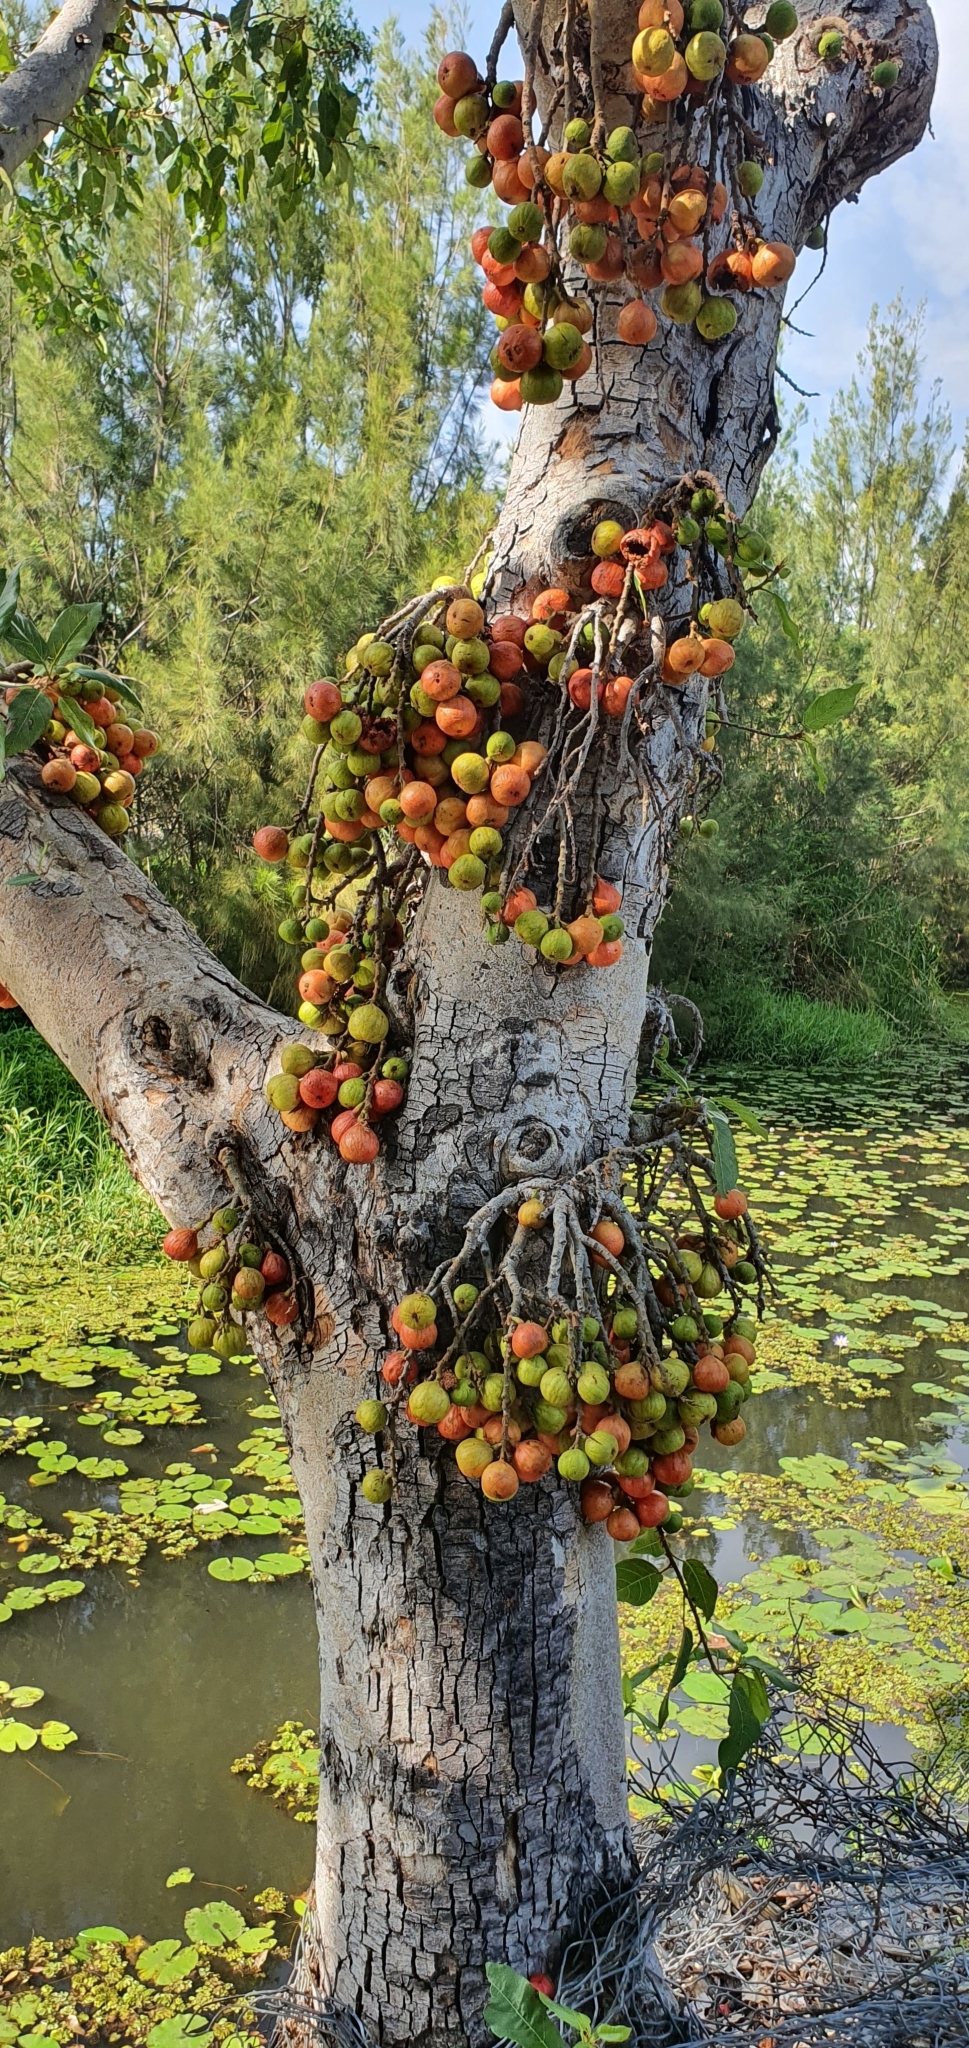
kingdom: Plantae
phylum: Tracheophyta
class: Magnoliopsida
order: Rosales
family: Moraceae
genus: Ficus
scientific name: Ficus racemosa
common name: Cluster fig
